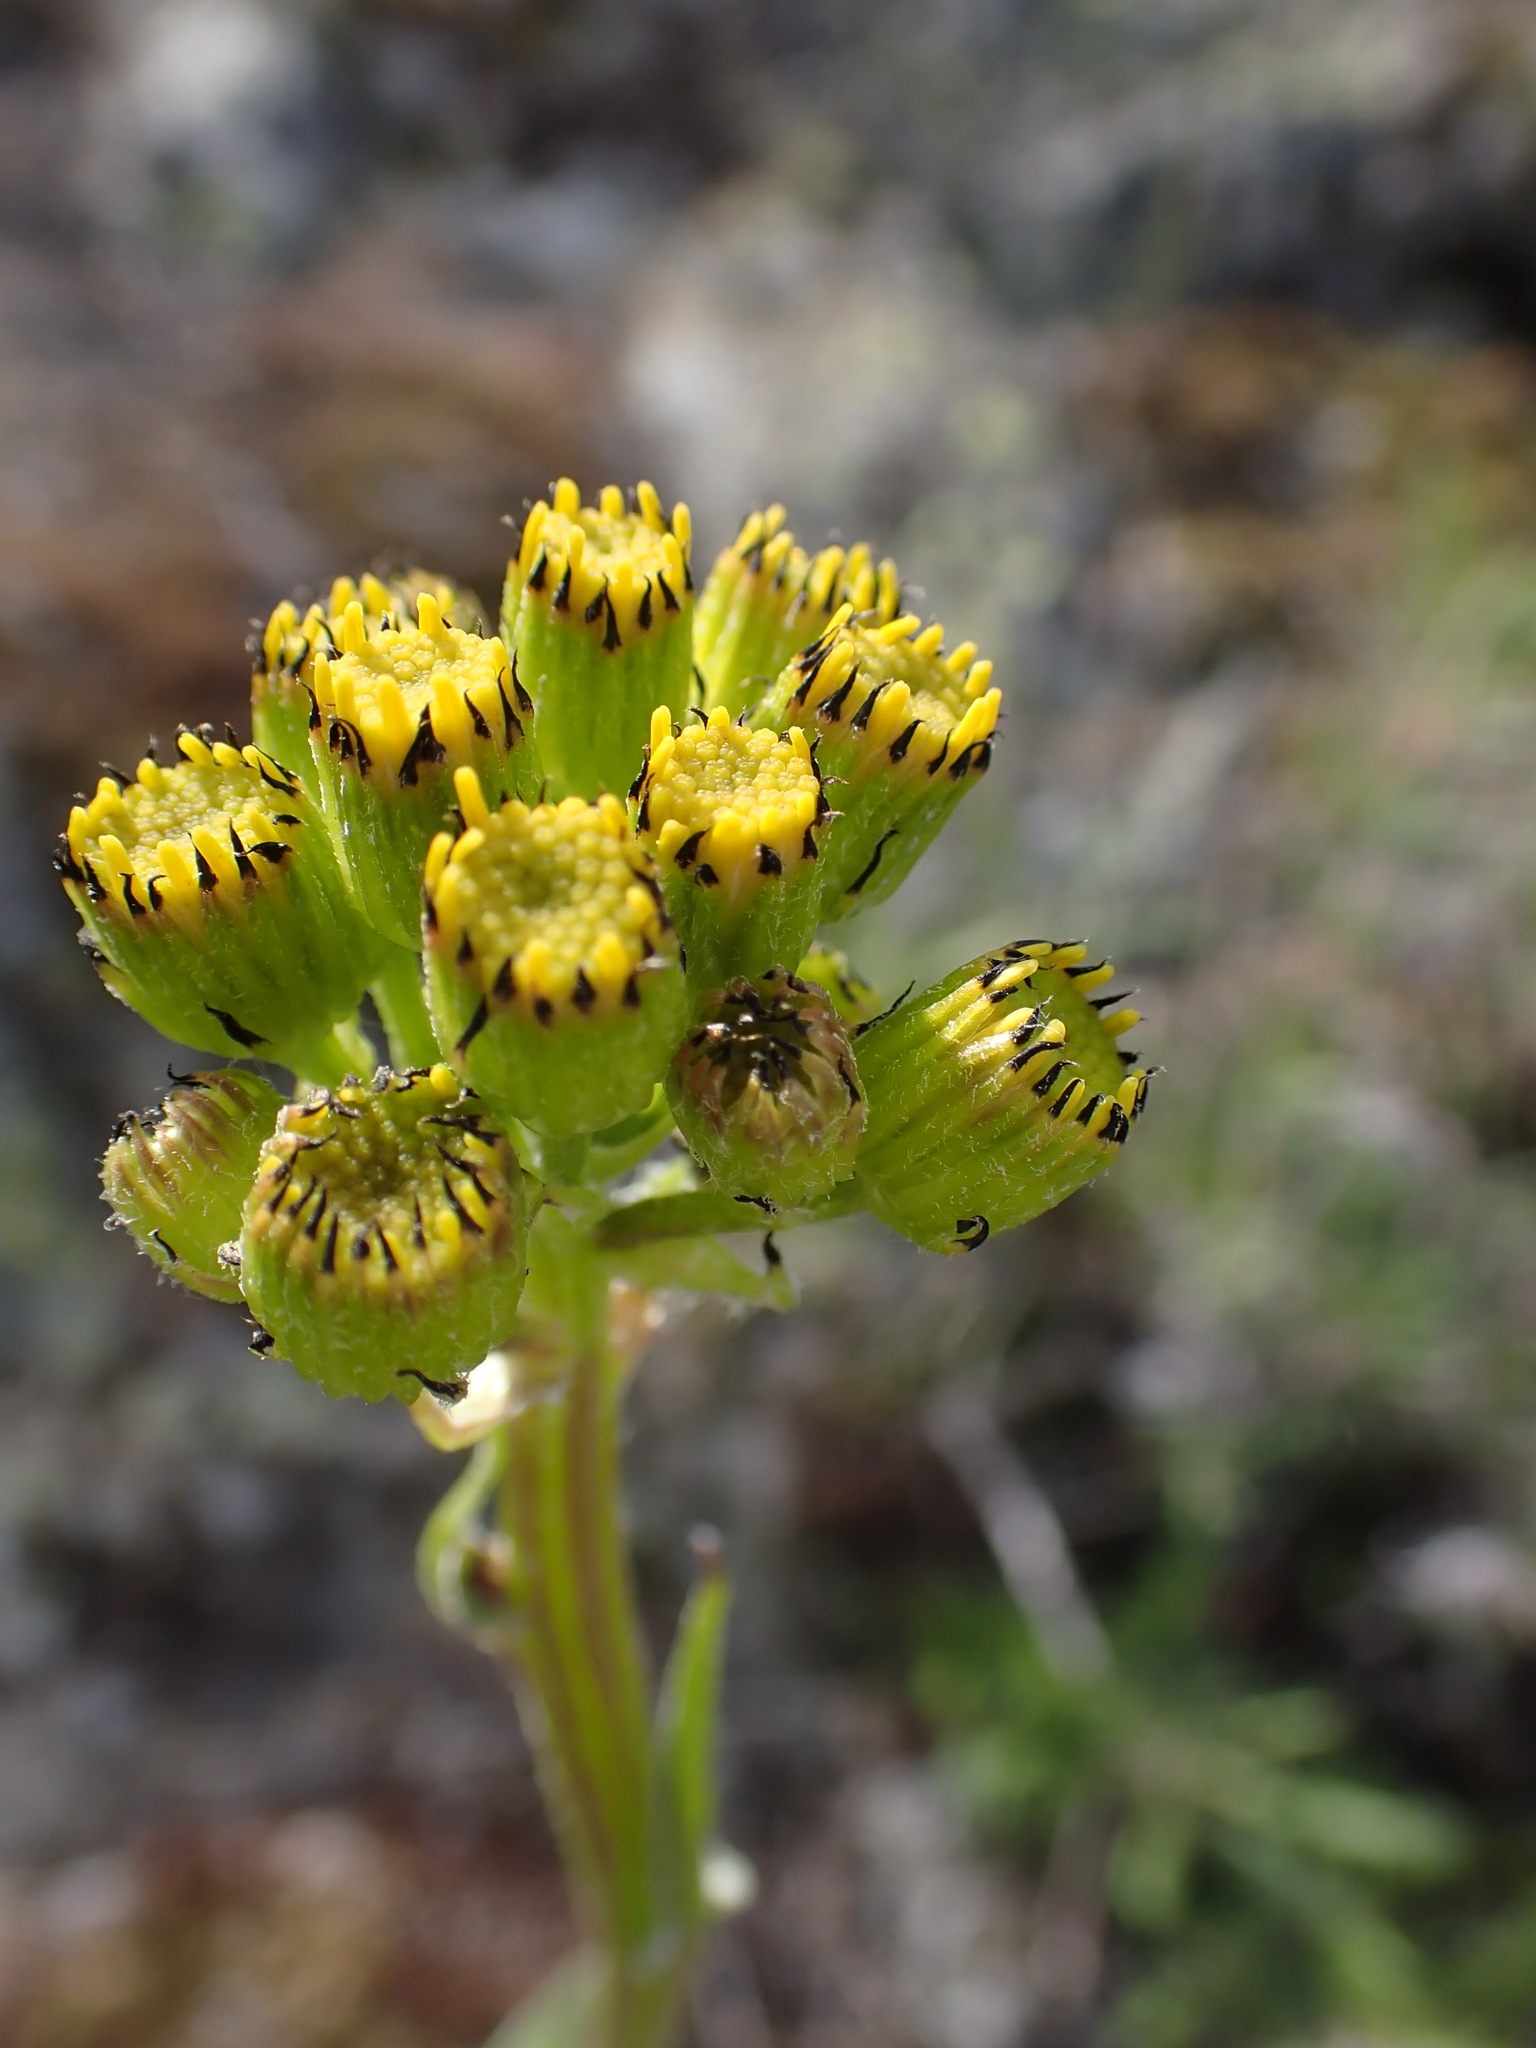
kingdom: Plantae
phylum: Tracheophyta
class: Magnoliopsida
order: Asterales
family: Asteraceae
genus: Senecio
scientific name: Senecio integerrimus
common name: Gaugeplant
